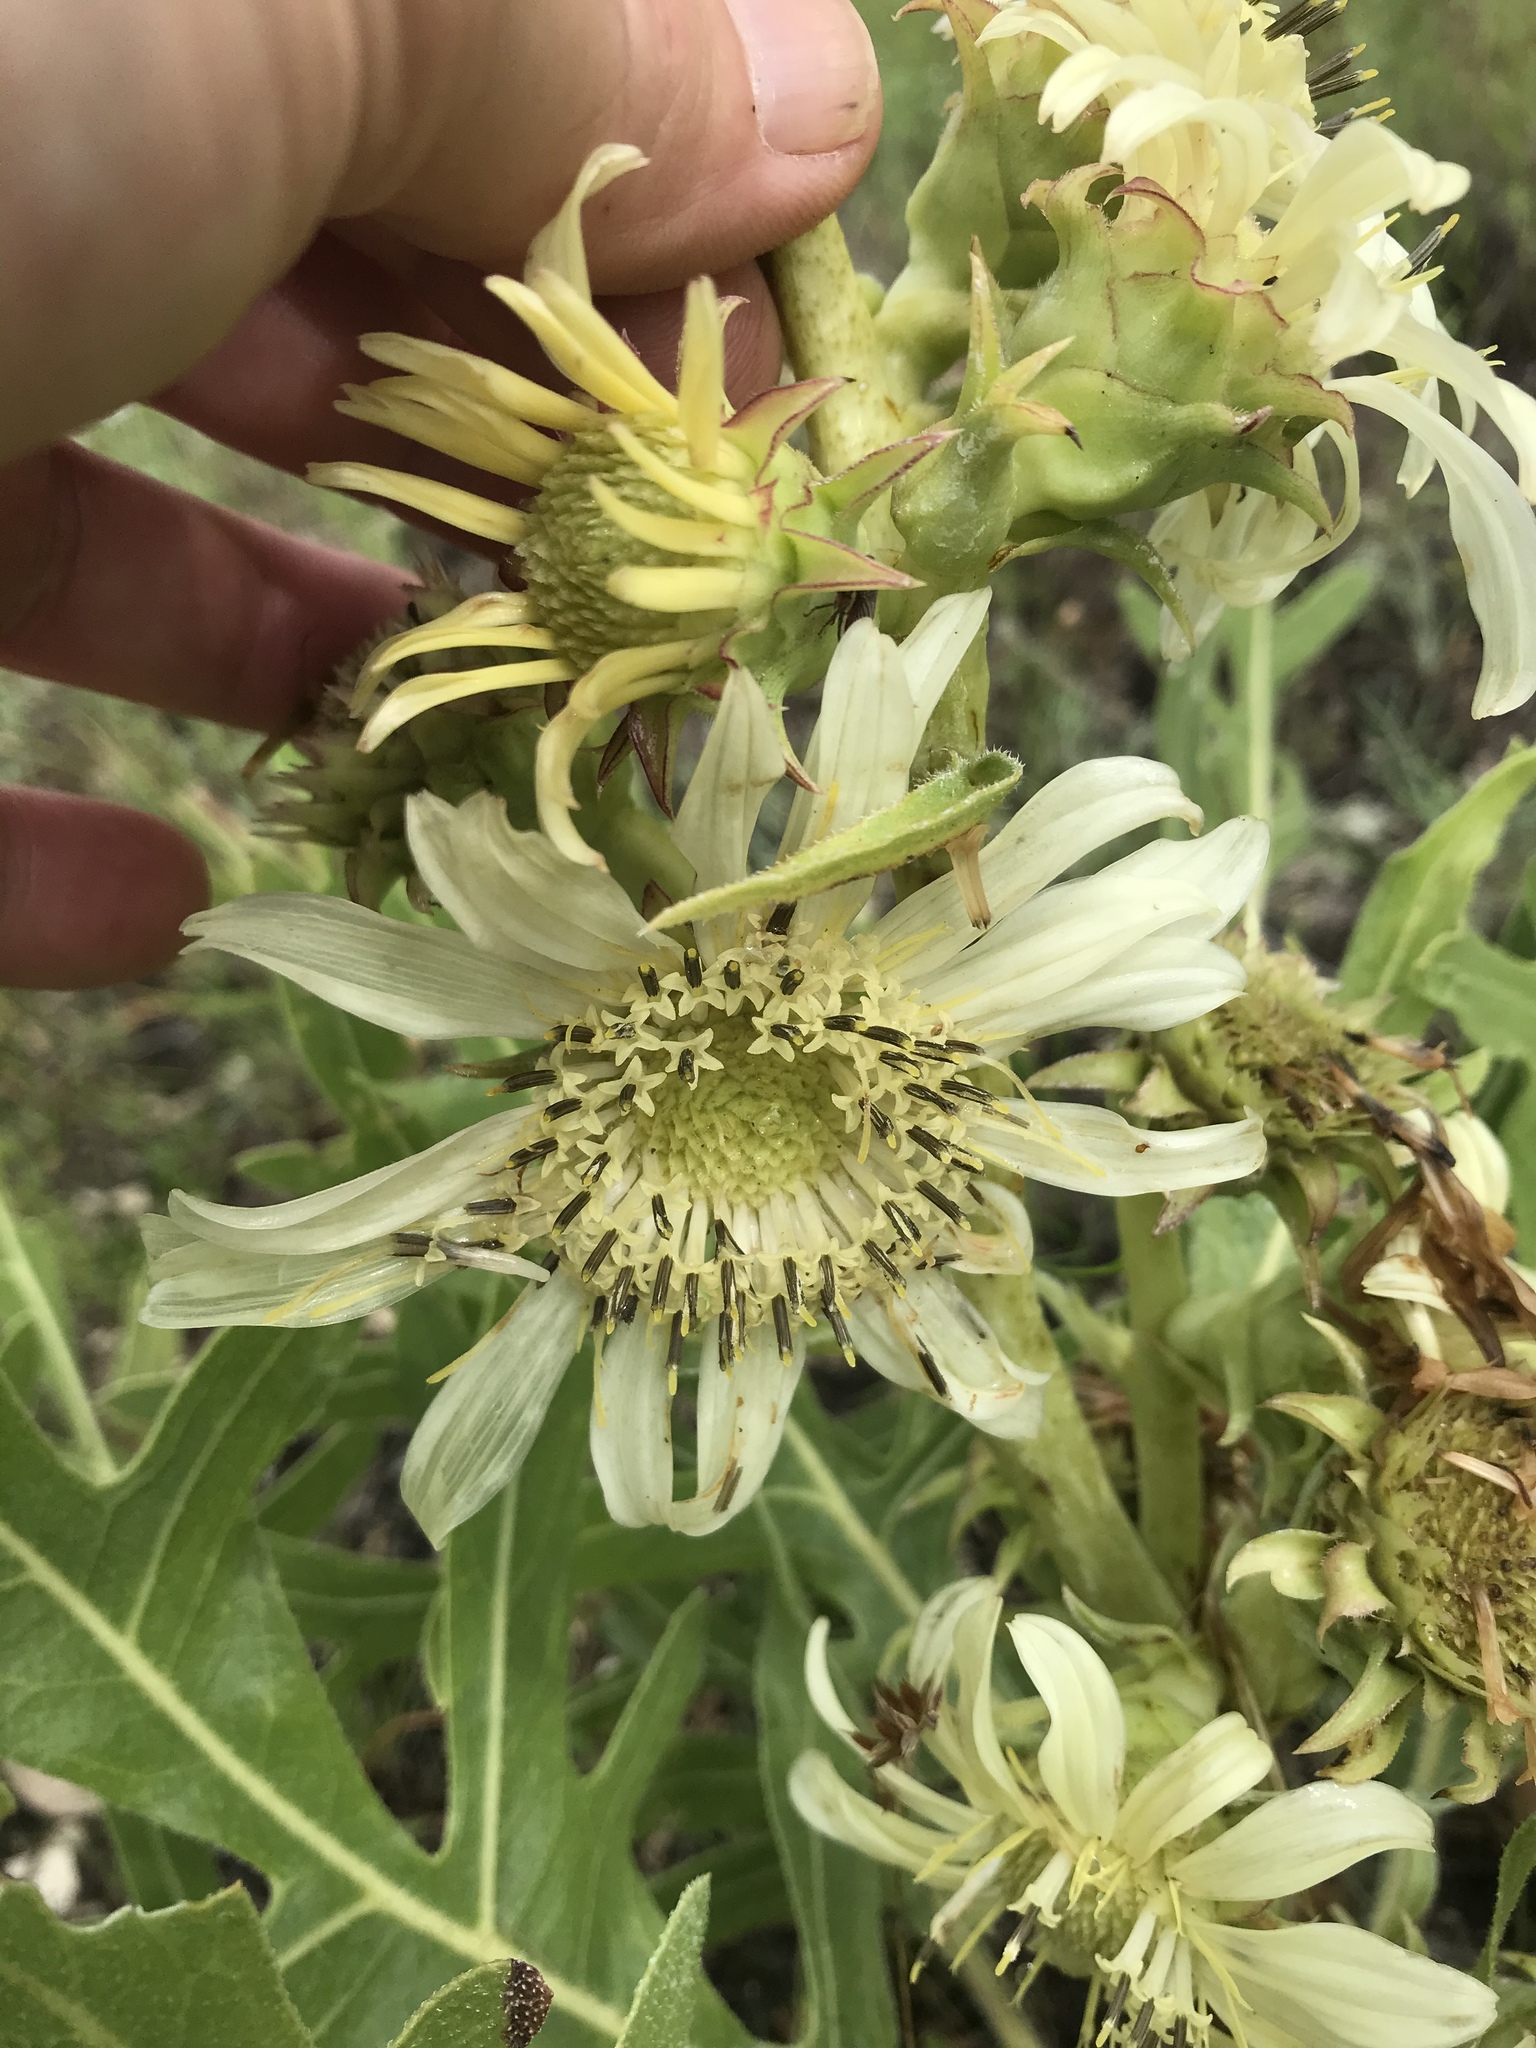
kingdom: Plantae
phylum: Tracheophyta
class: Magnoliopsida
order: Asterales
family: Asteraceae
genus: Silphium
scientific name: Silphium albiflorum
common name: White rosinweed
